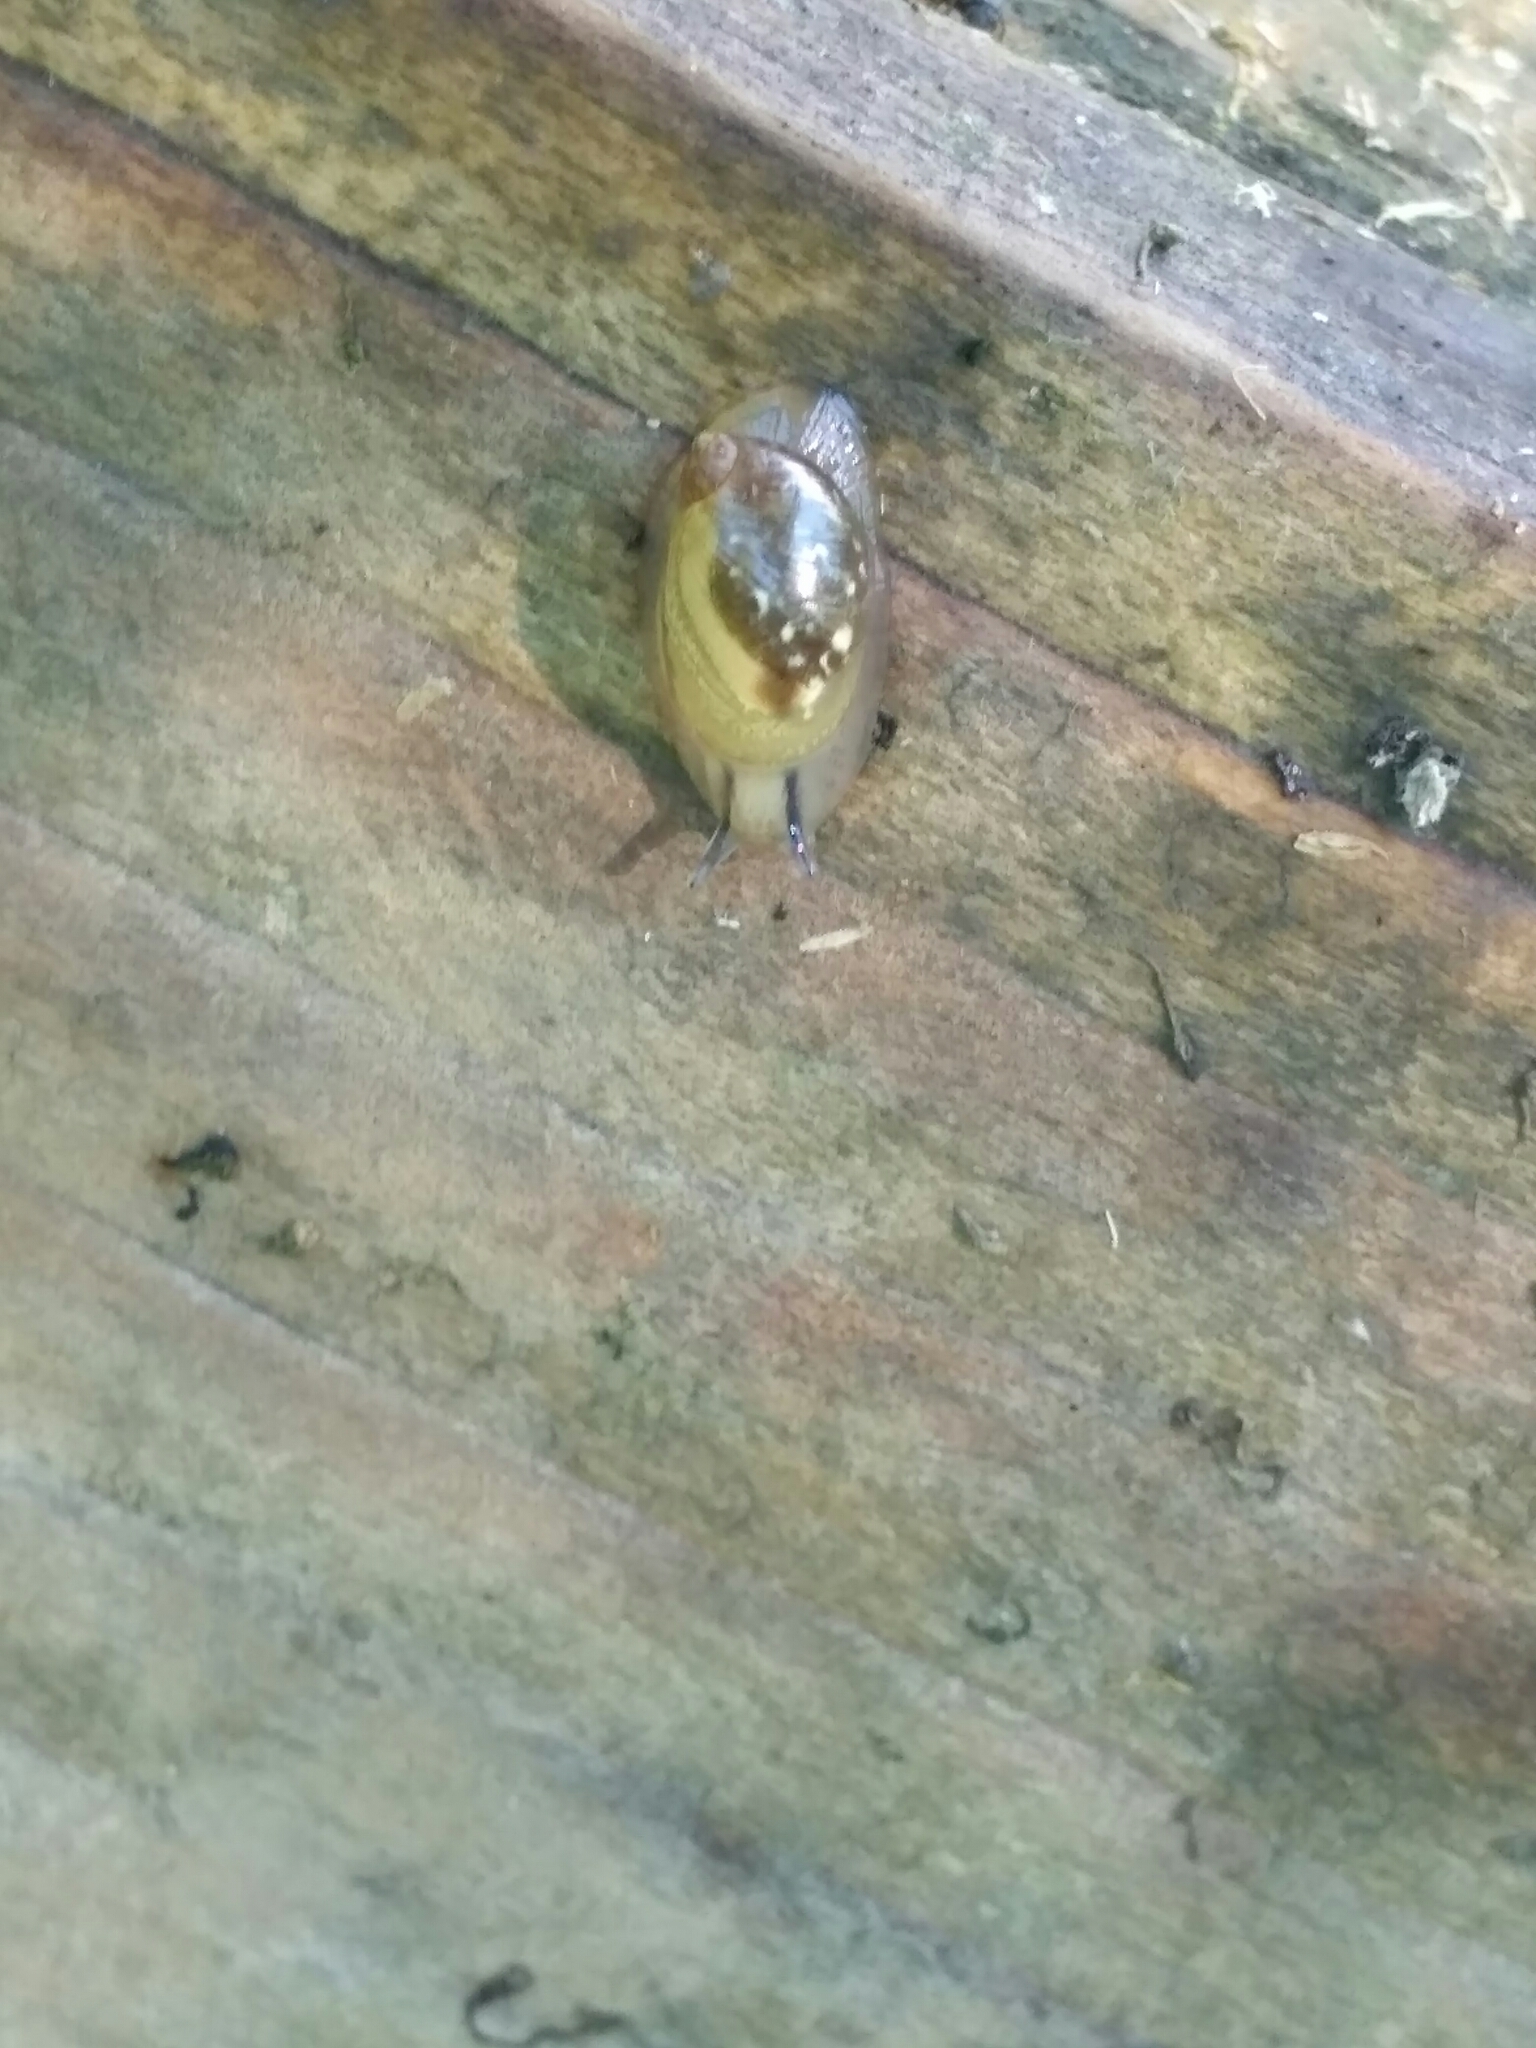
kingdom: Animalia
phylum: Mollusca
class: Gastropoda
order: Stylommatophora
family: Succineidae
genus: Succinea
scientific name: Succinea putris
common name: European ambersnail
